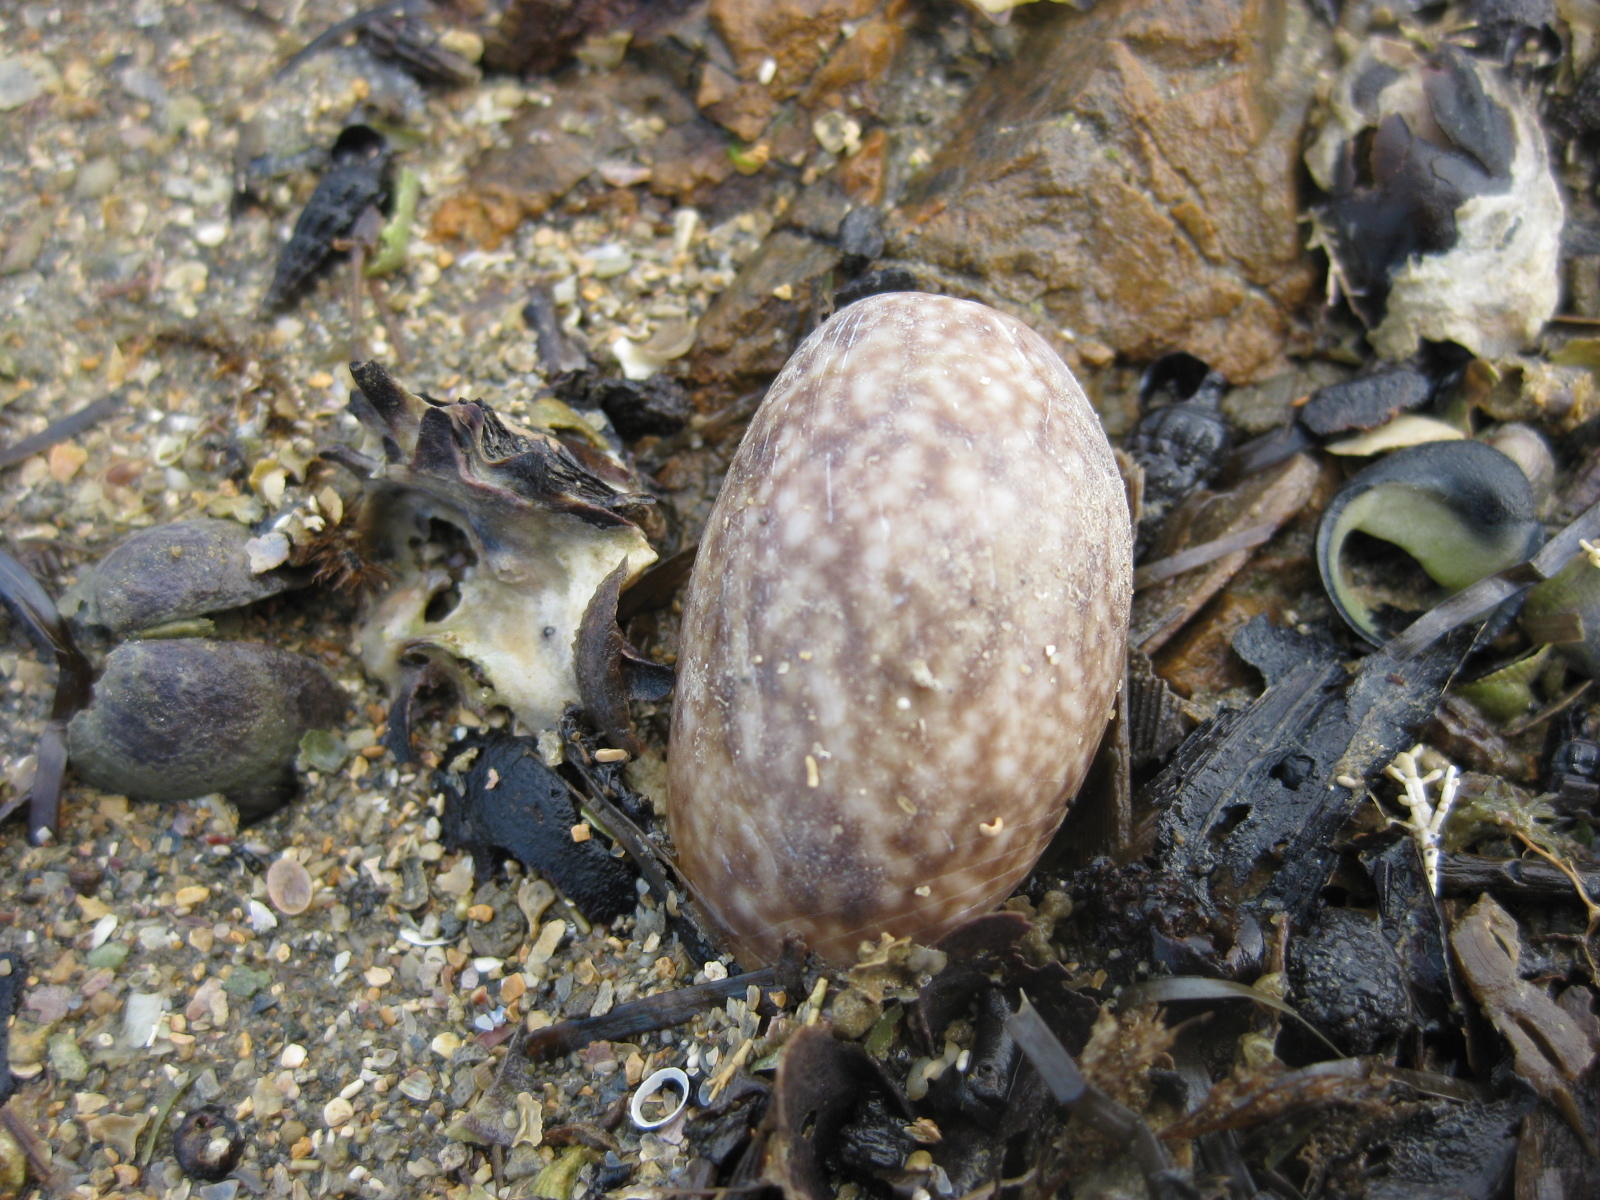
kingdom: Animalia
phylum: Mollusca
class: Gastropoda
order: Cephalaspidea
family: Bullidae
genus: Bulla
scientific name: Bulla quoyii
